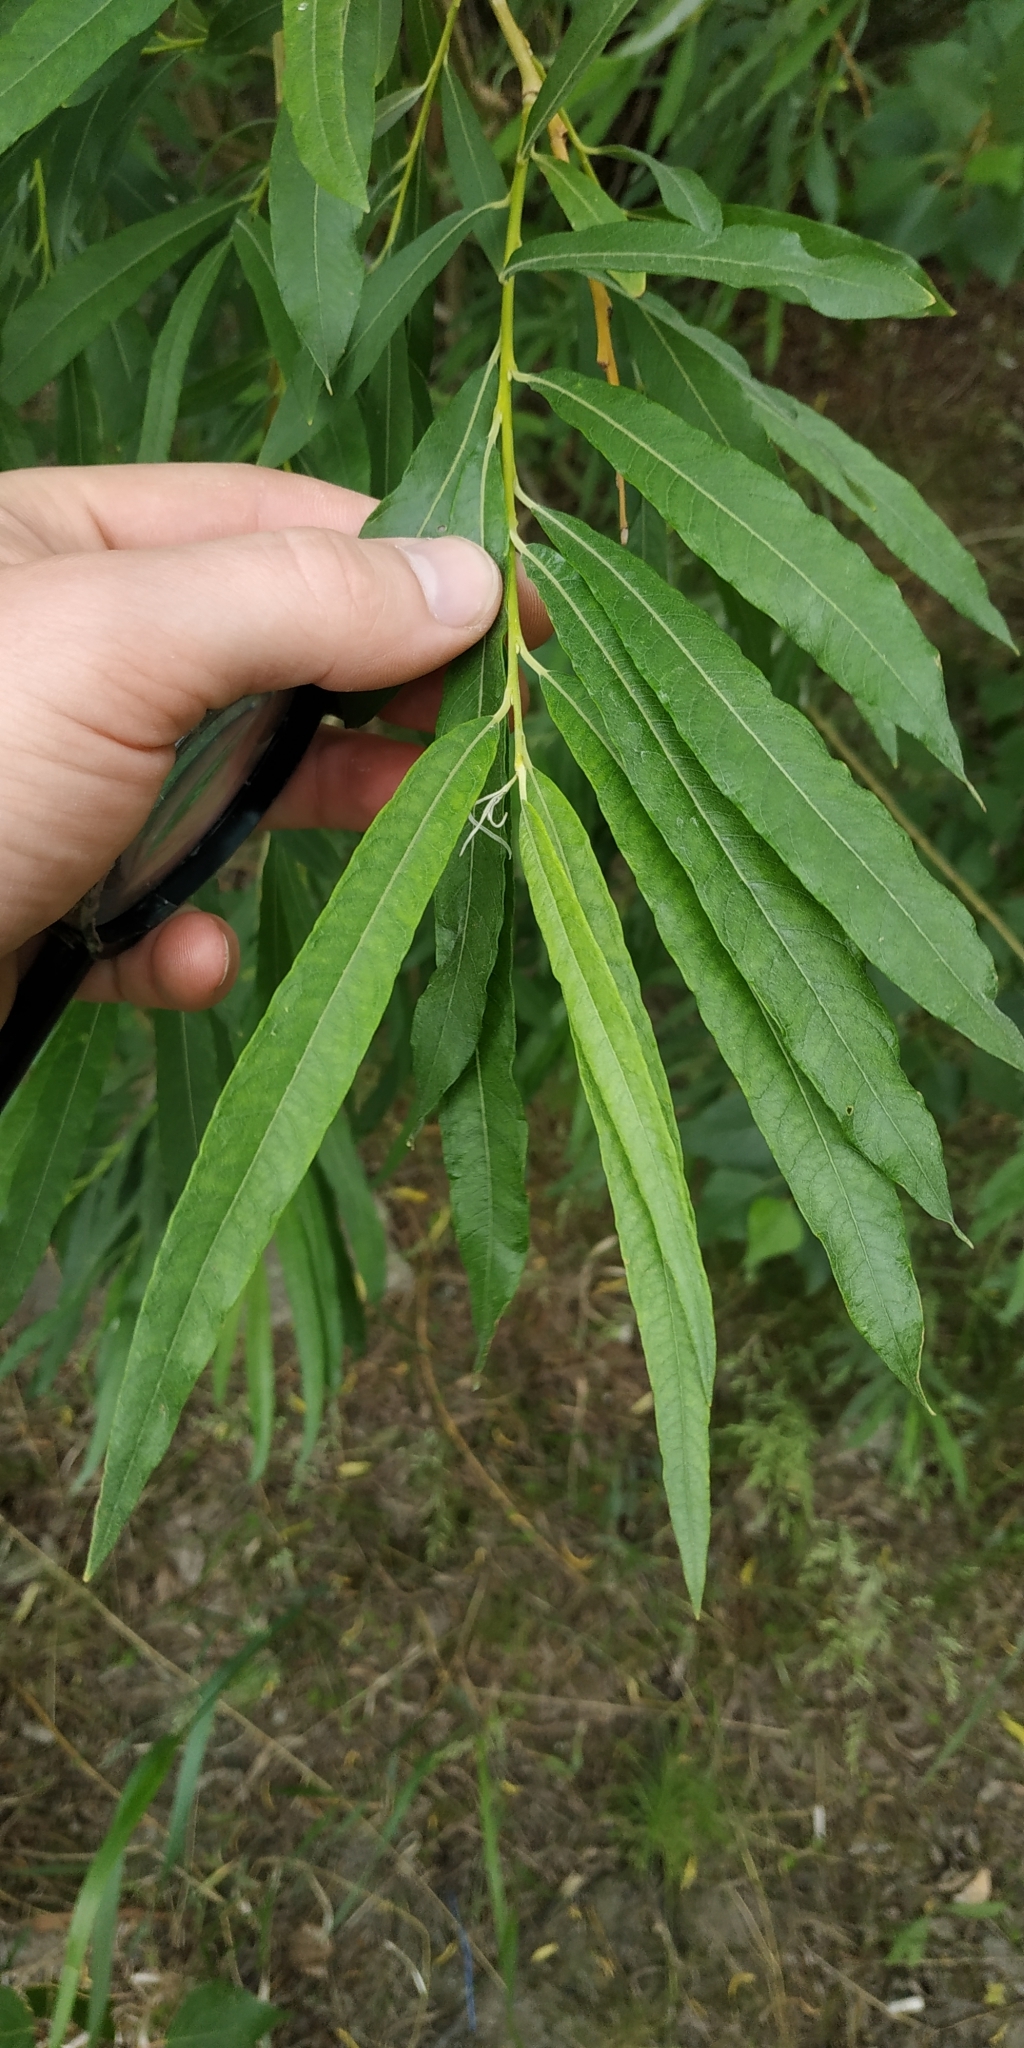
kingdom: Plantae
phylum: Tracheophyta
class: Magnoliopsida
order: Malpighiales
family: Salicaceae
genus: Salix
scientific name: Salix viminalis
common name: Osier
